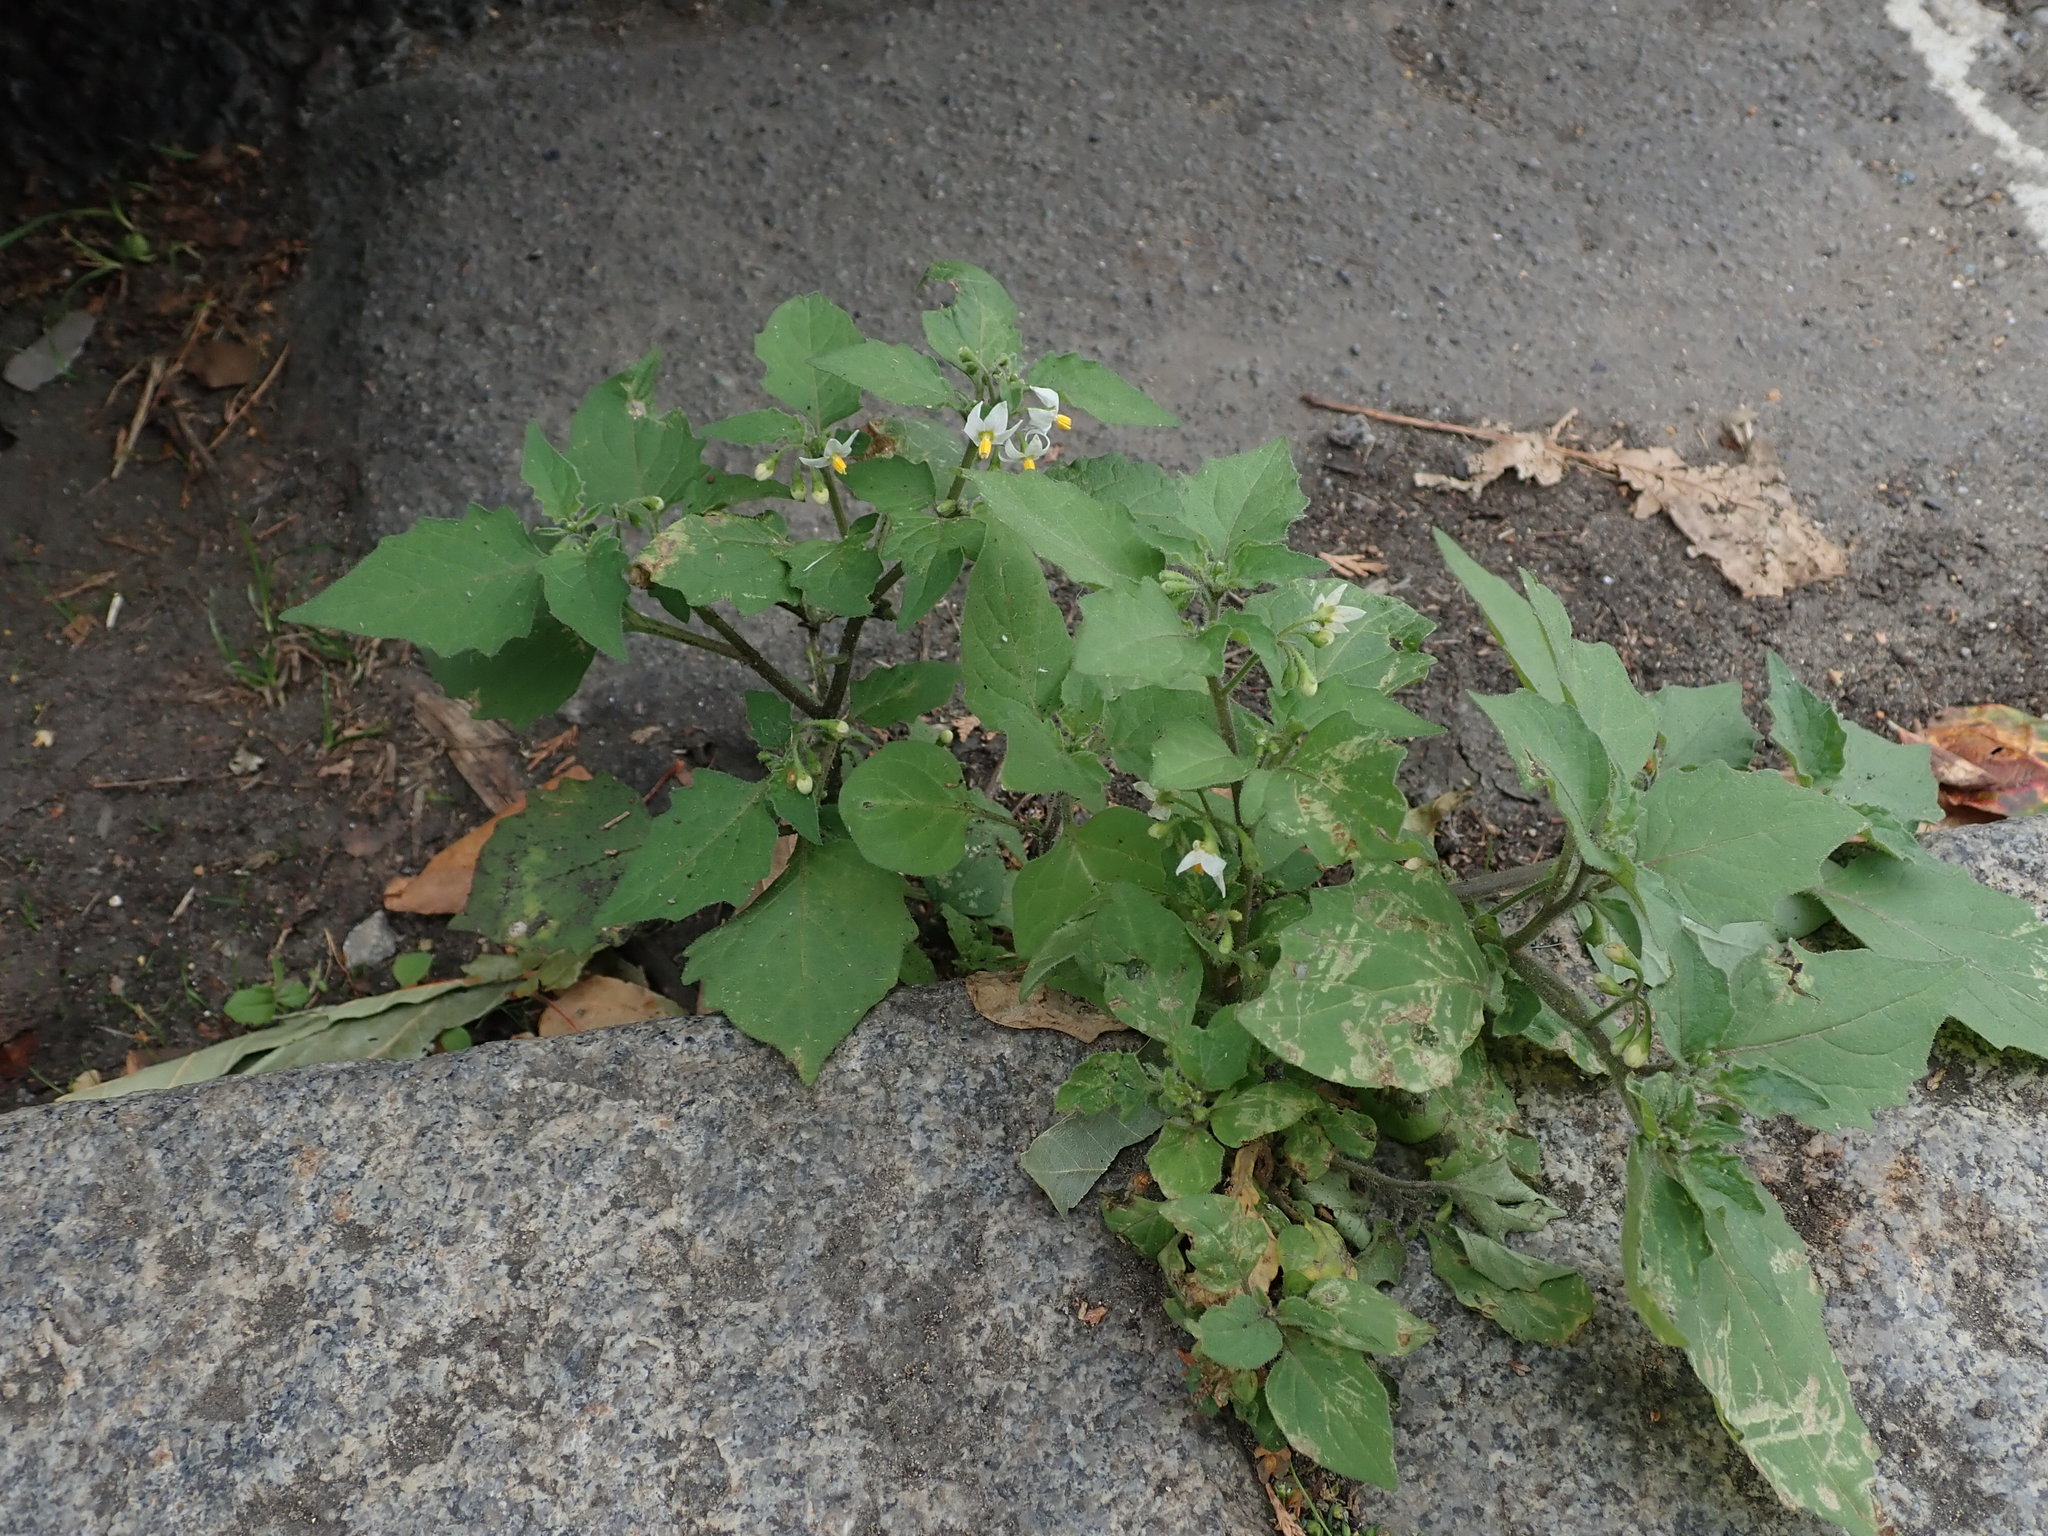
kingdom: Plantae
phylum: Tracheophyta
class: Magnoliopsida
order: Solanales
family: Solanaceae
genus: Solanum
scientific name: Solanum nigrum
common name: Black nightshade
